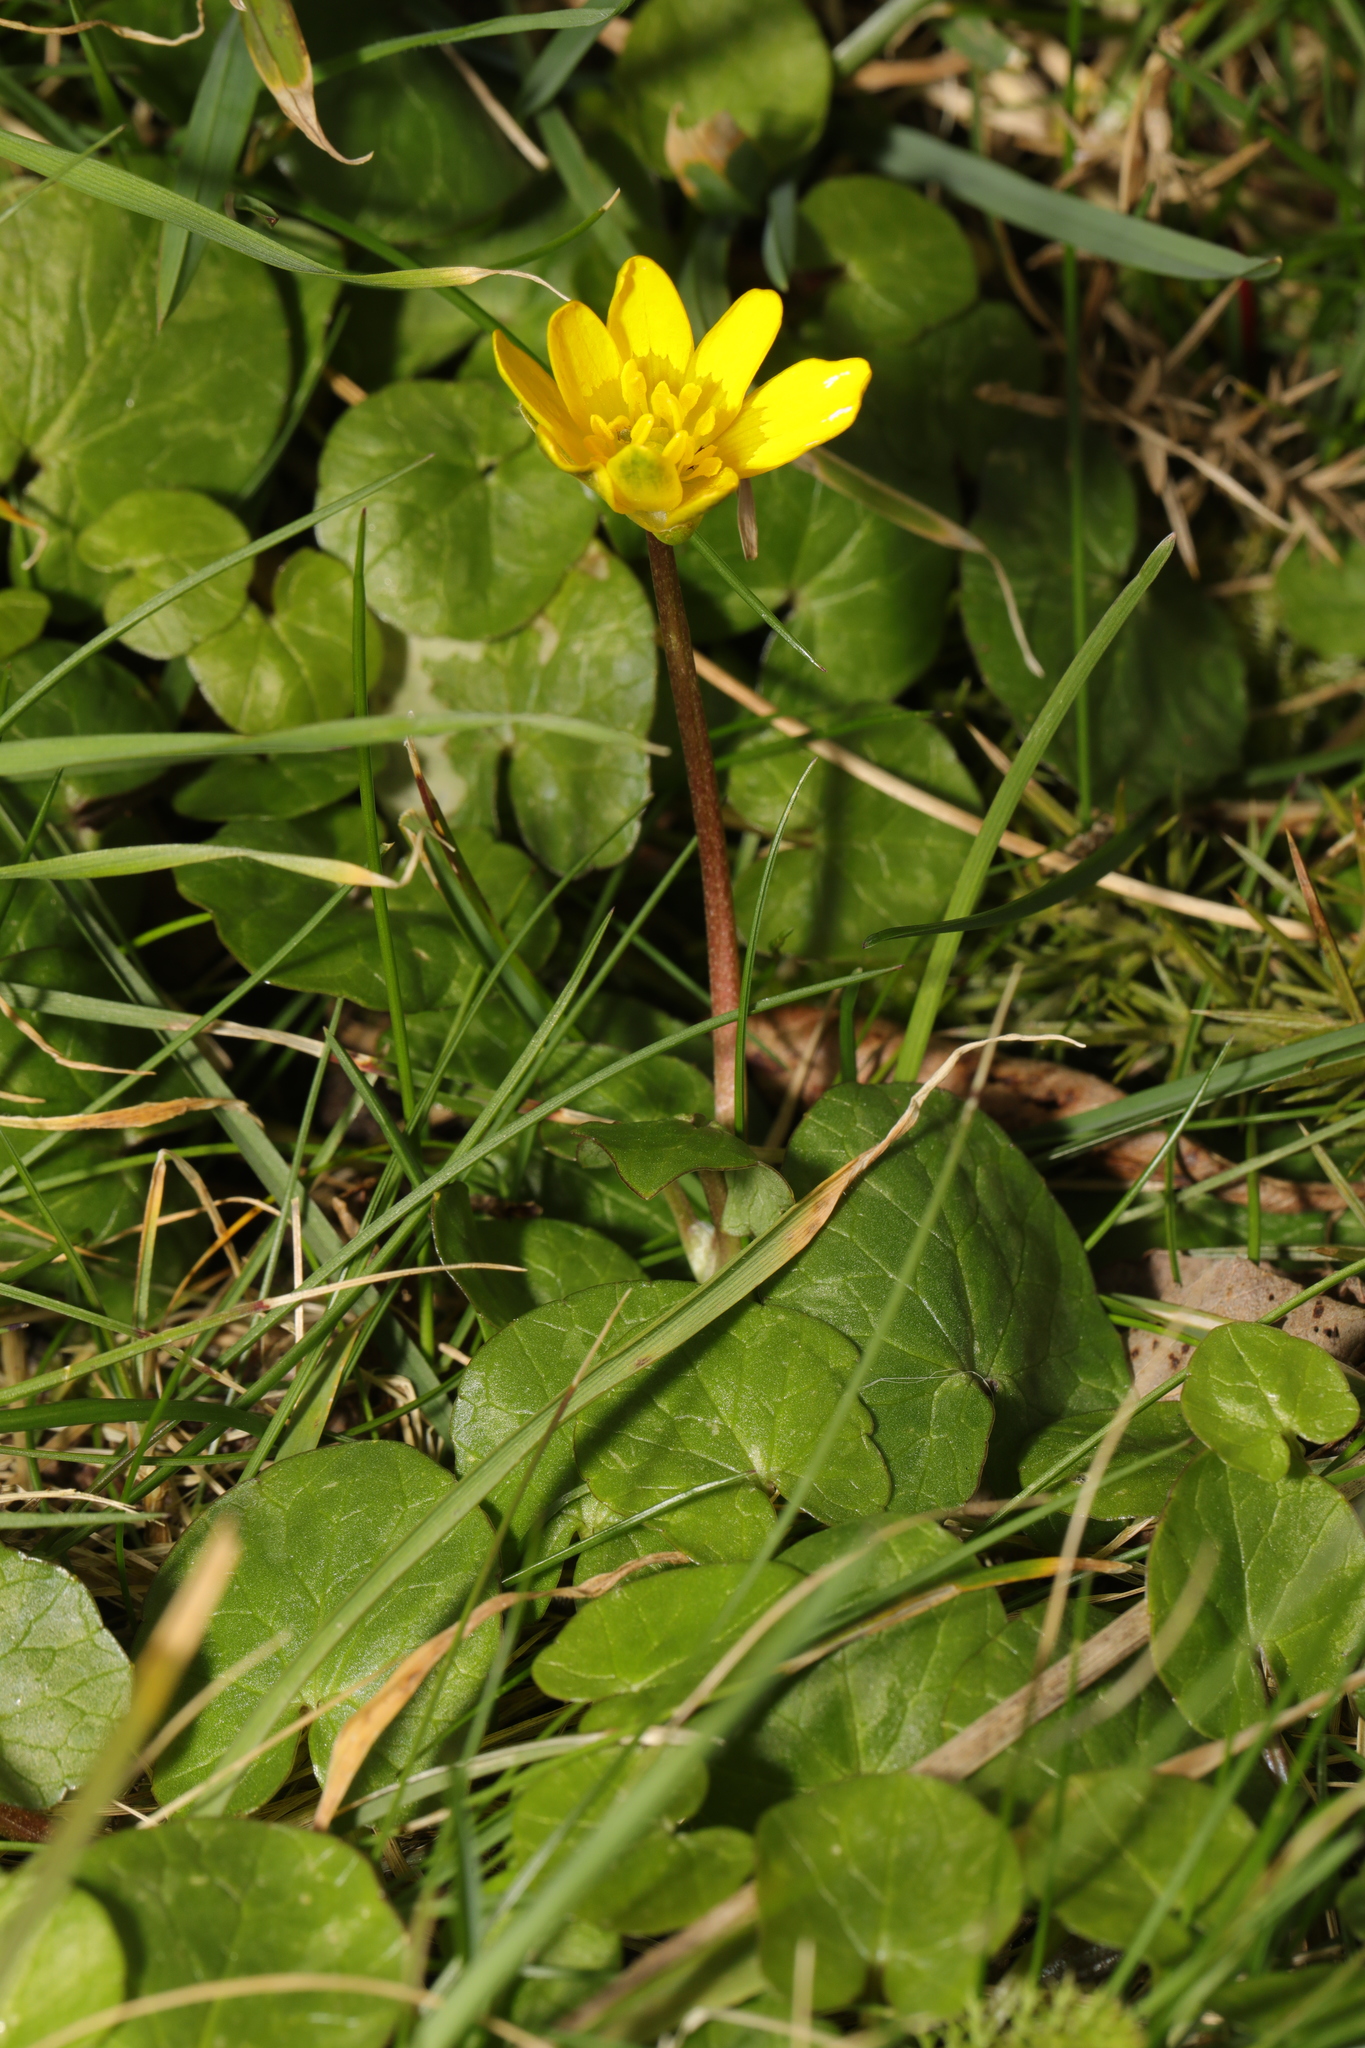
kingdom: Plantae
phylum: Tracheophyta
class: Magnoliopsida
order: Ranunculales
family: Ranunculaceae
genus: Ficaria
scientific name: Ficaria verna
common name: Lesser celandine
